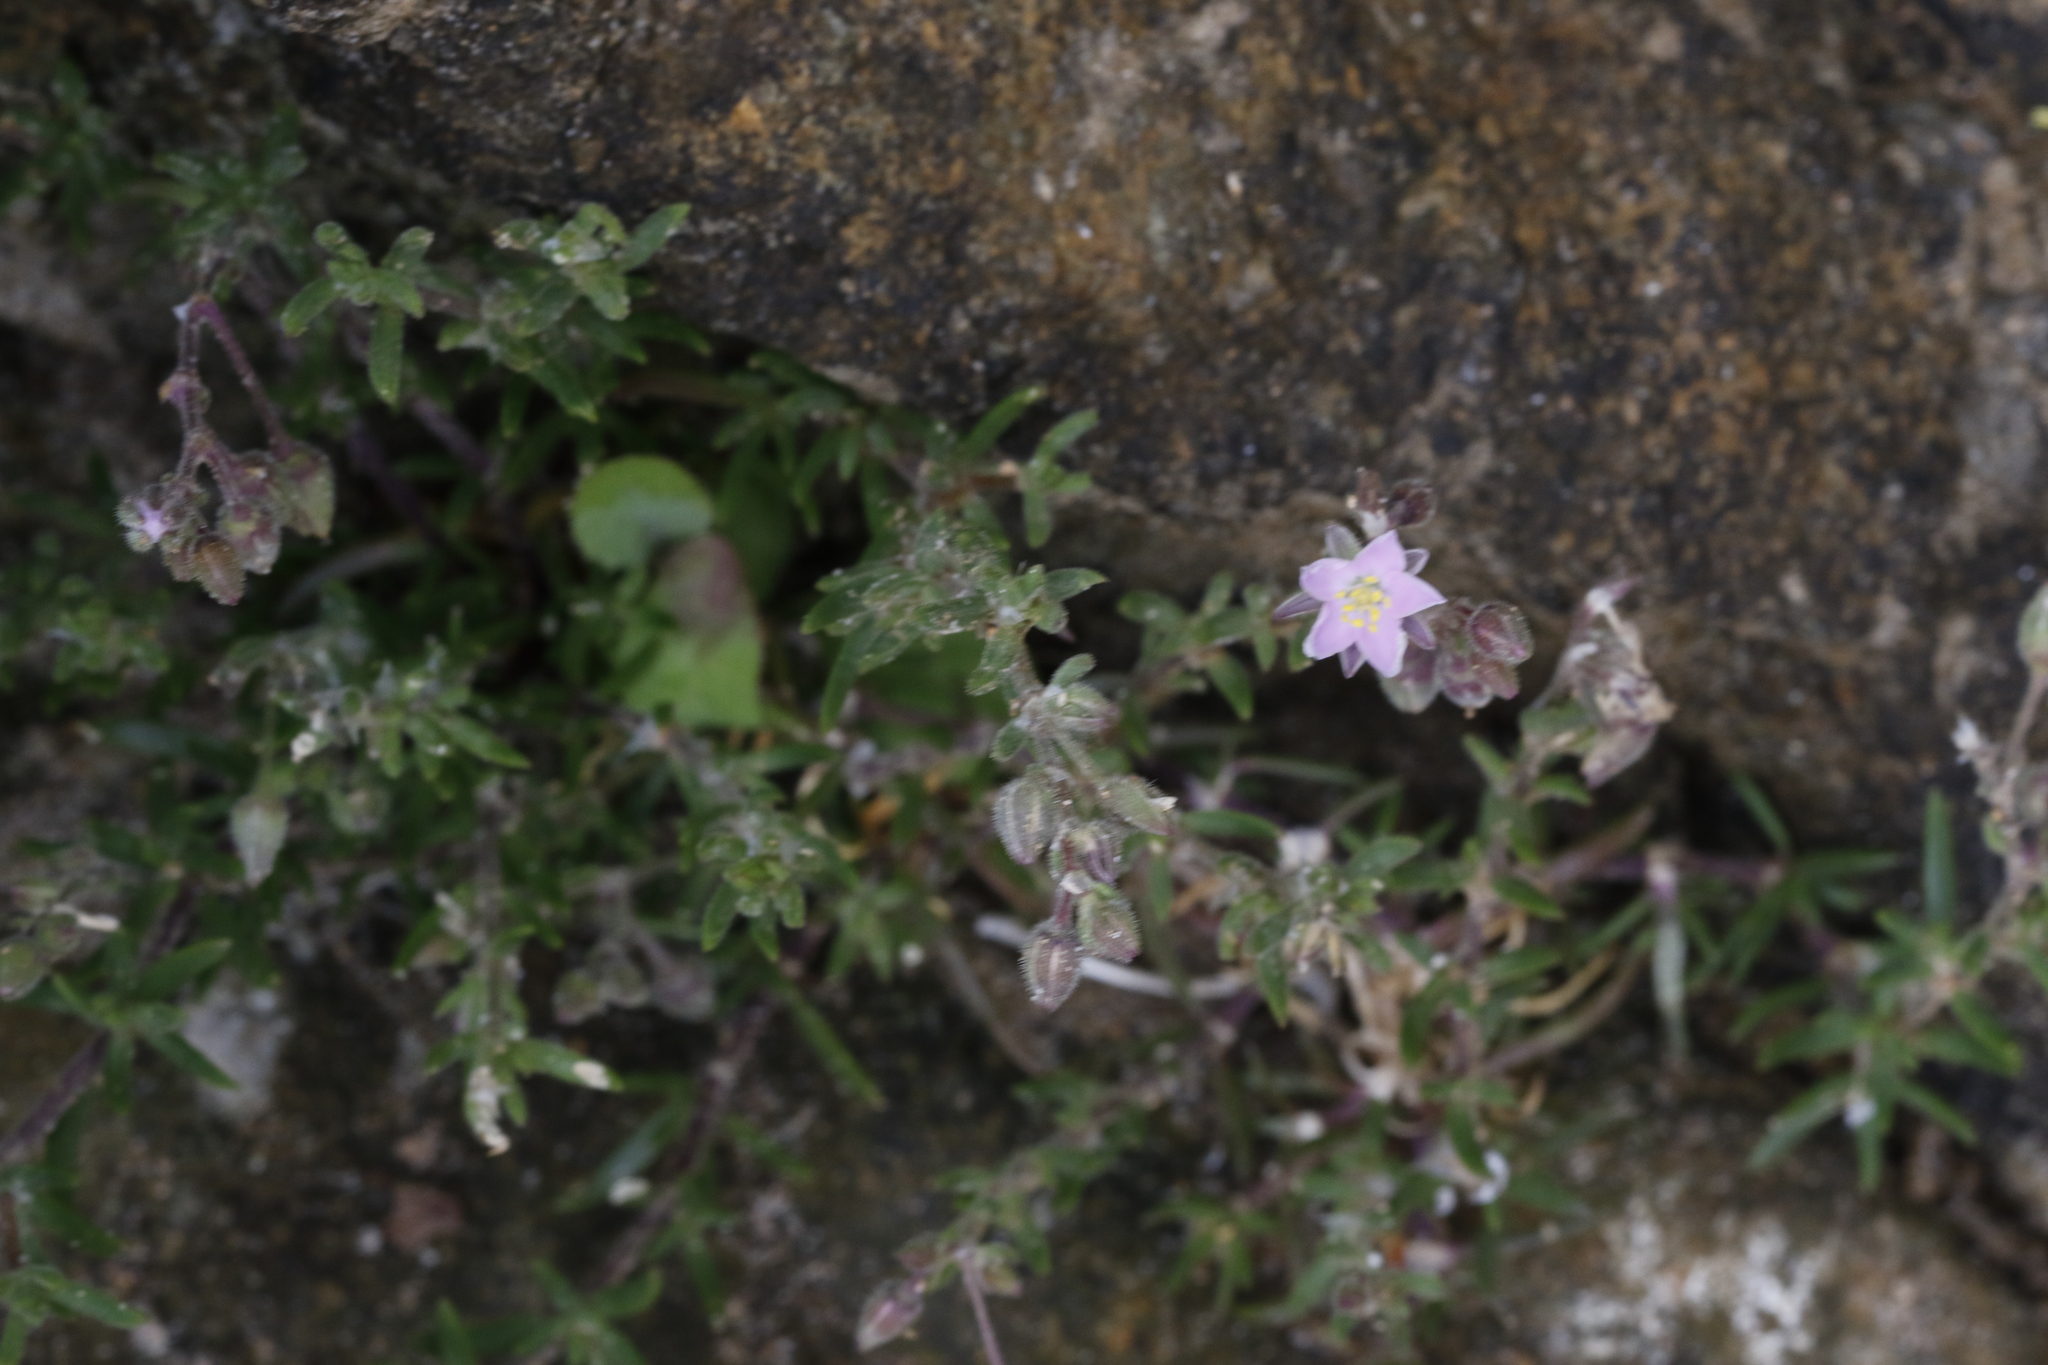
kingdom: Plantae
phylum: Tracheophyta
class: Magnoliopsida
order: Caryophyllales
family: Caryophyllaceae
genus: Spergularia
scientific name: Spergularia marina
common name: Lesser sea-spurrey
